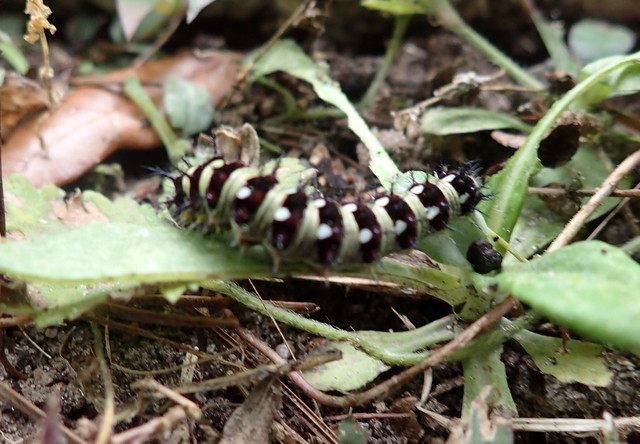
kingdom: Animalia
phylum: Arthropoda
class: Insecta
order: Lepidoptera
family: Nymphalidae
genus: Vanessa
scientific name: Vanessa virginiensis
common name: American lady
